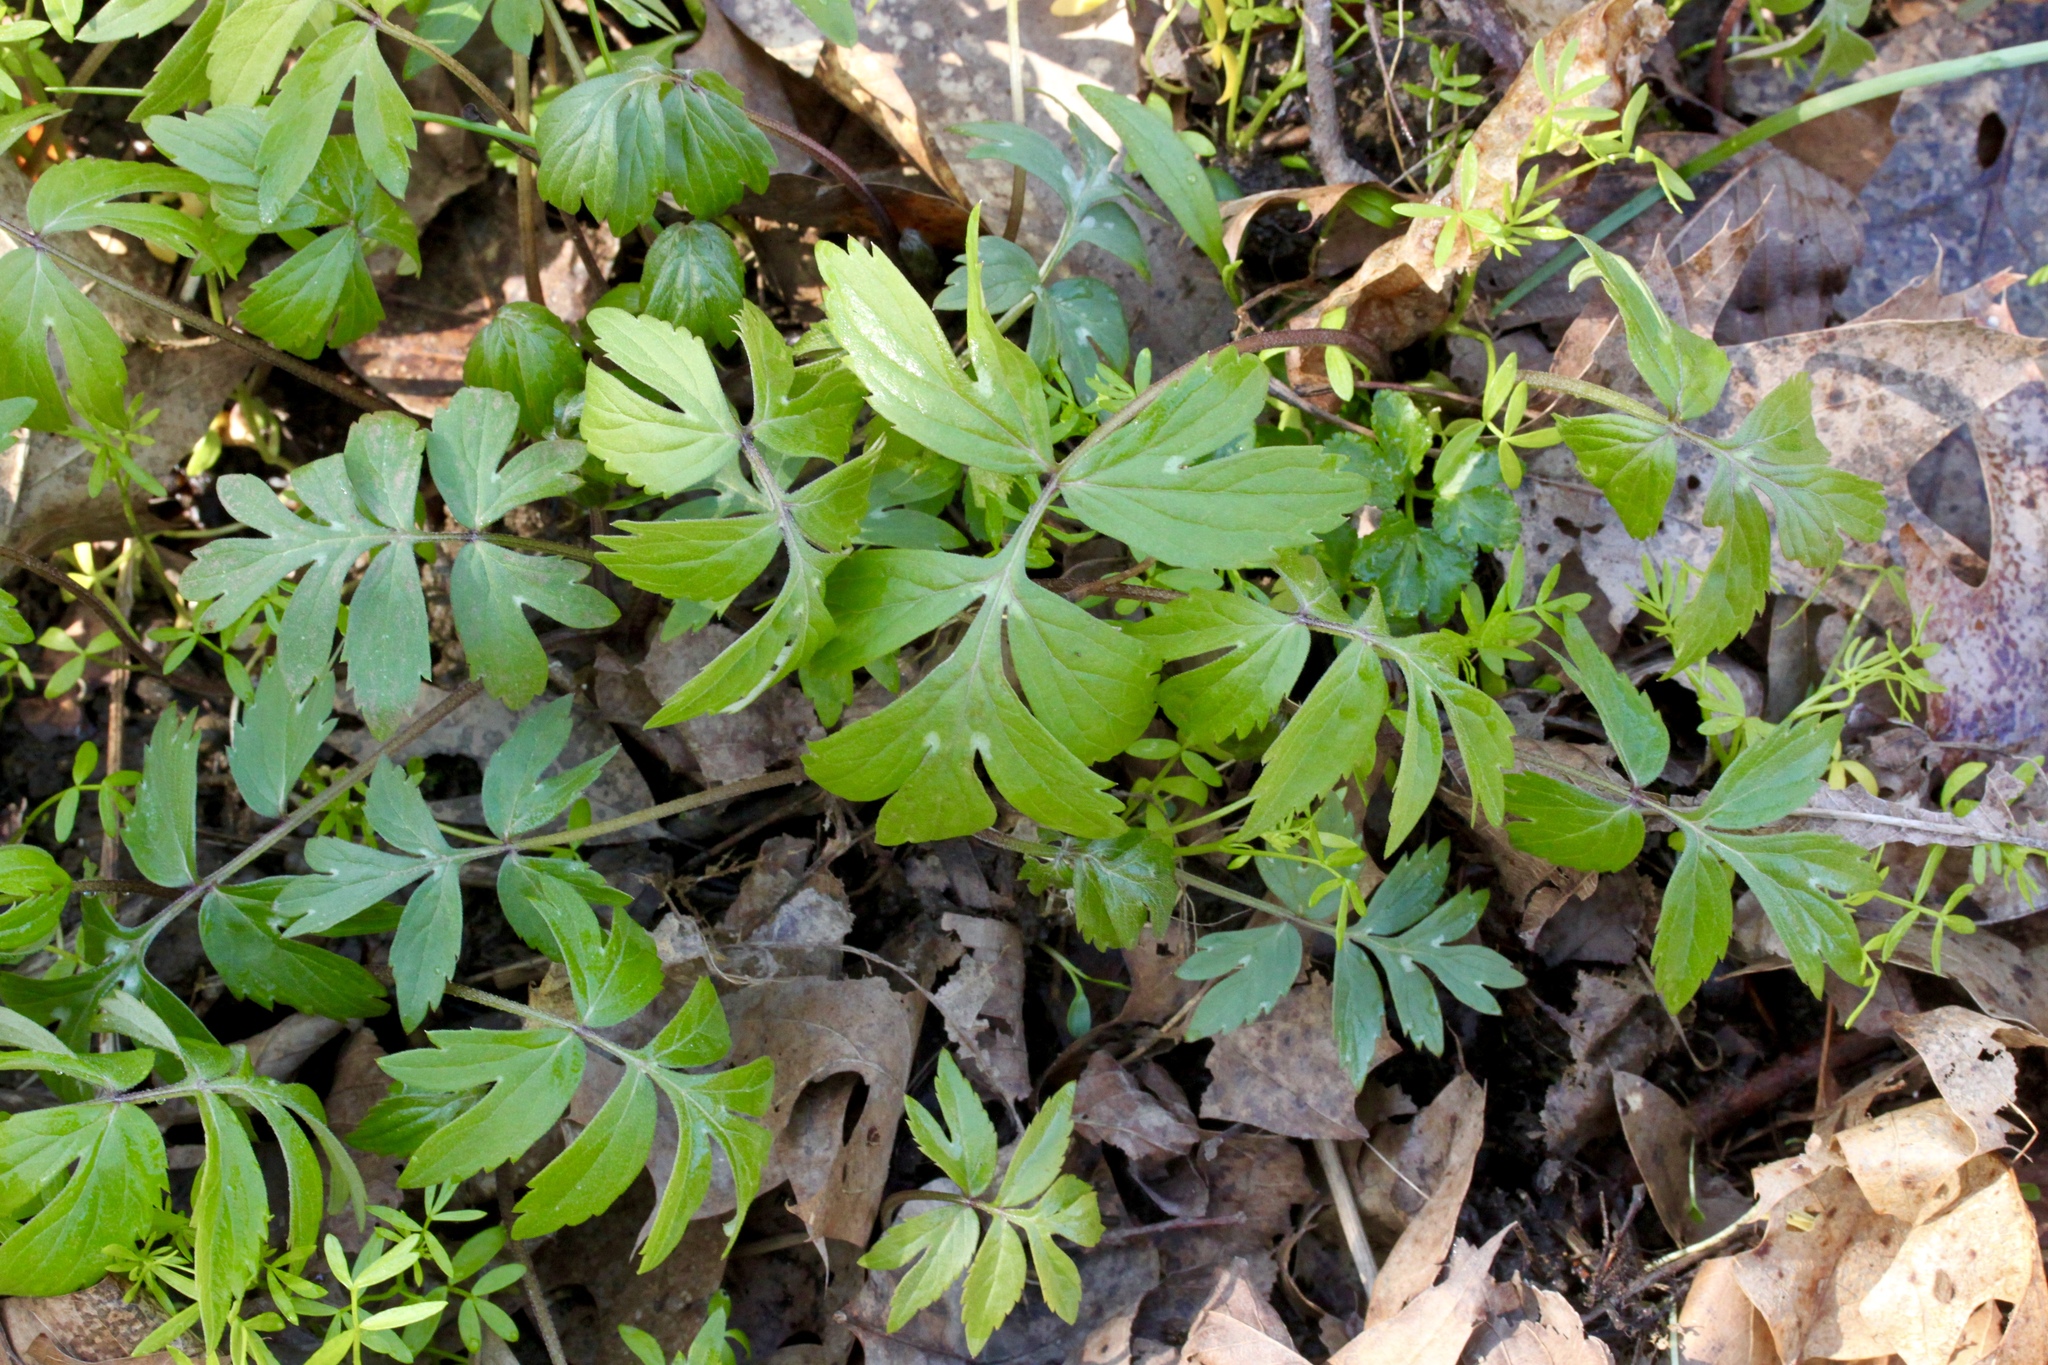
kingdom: Plantae
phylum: Tracheophyta
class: Magnoliopsida
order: Boraginales
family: Hydrophyllaceae
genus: Hydrophyllum
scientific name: Hydrophyllum virginianum
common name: Virginia waterleaf
